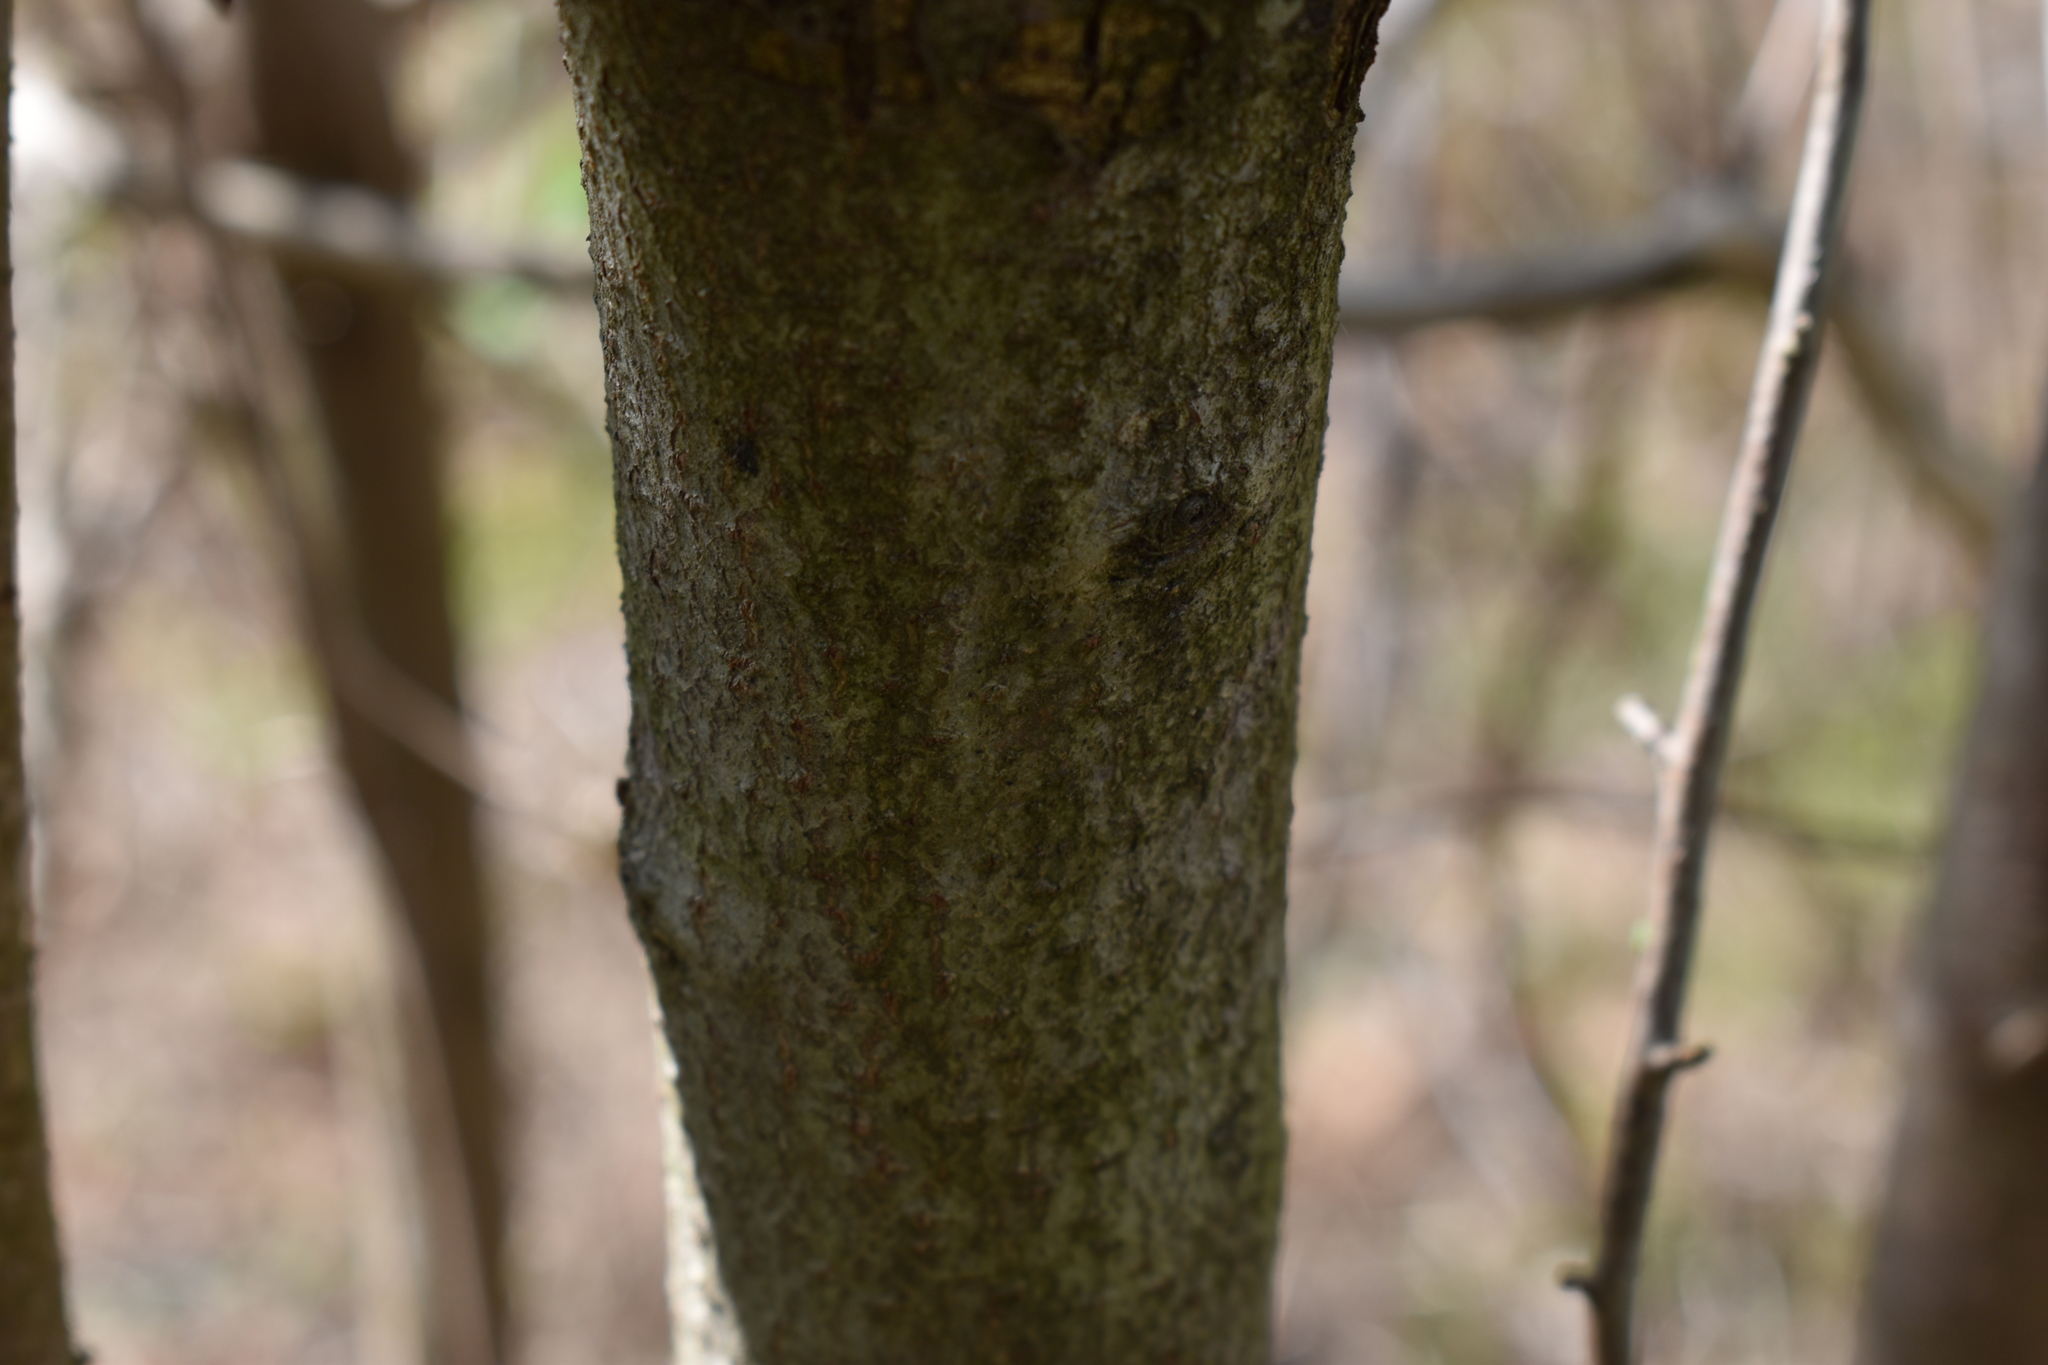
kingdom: Plantae
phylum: Tracheophyta
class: Magnoliopsida
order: Rosales
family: Elaeagnaceae
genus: Elaeagnus
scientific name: Elaeagnus umbellata
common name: Autumn olive
